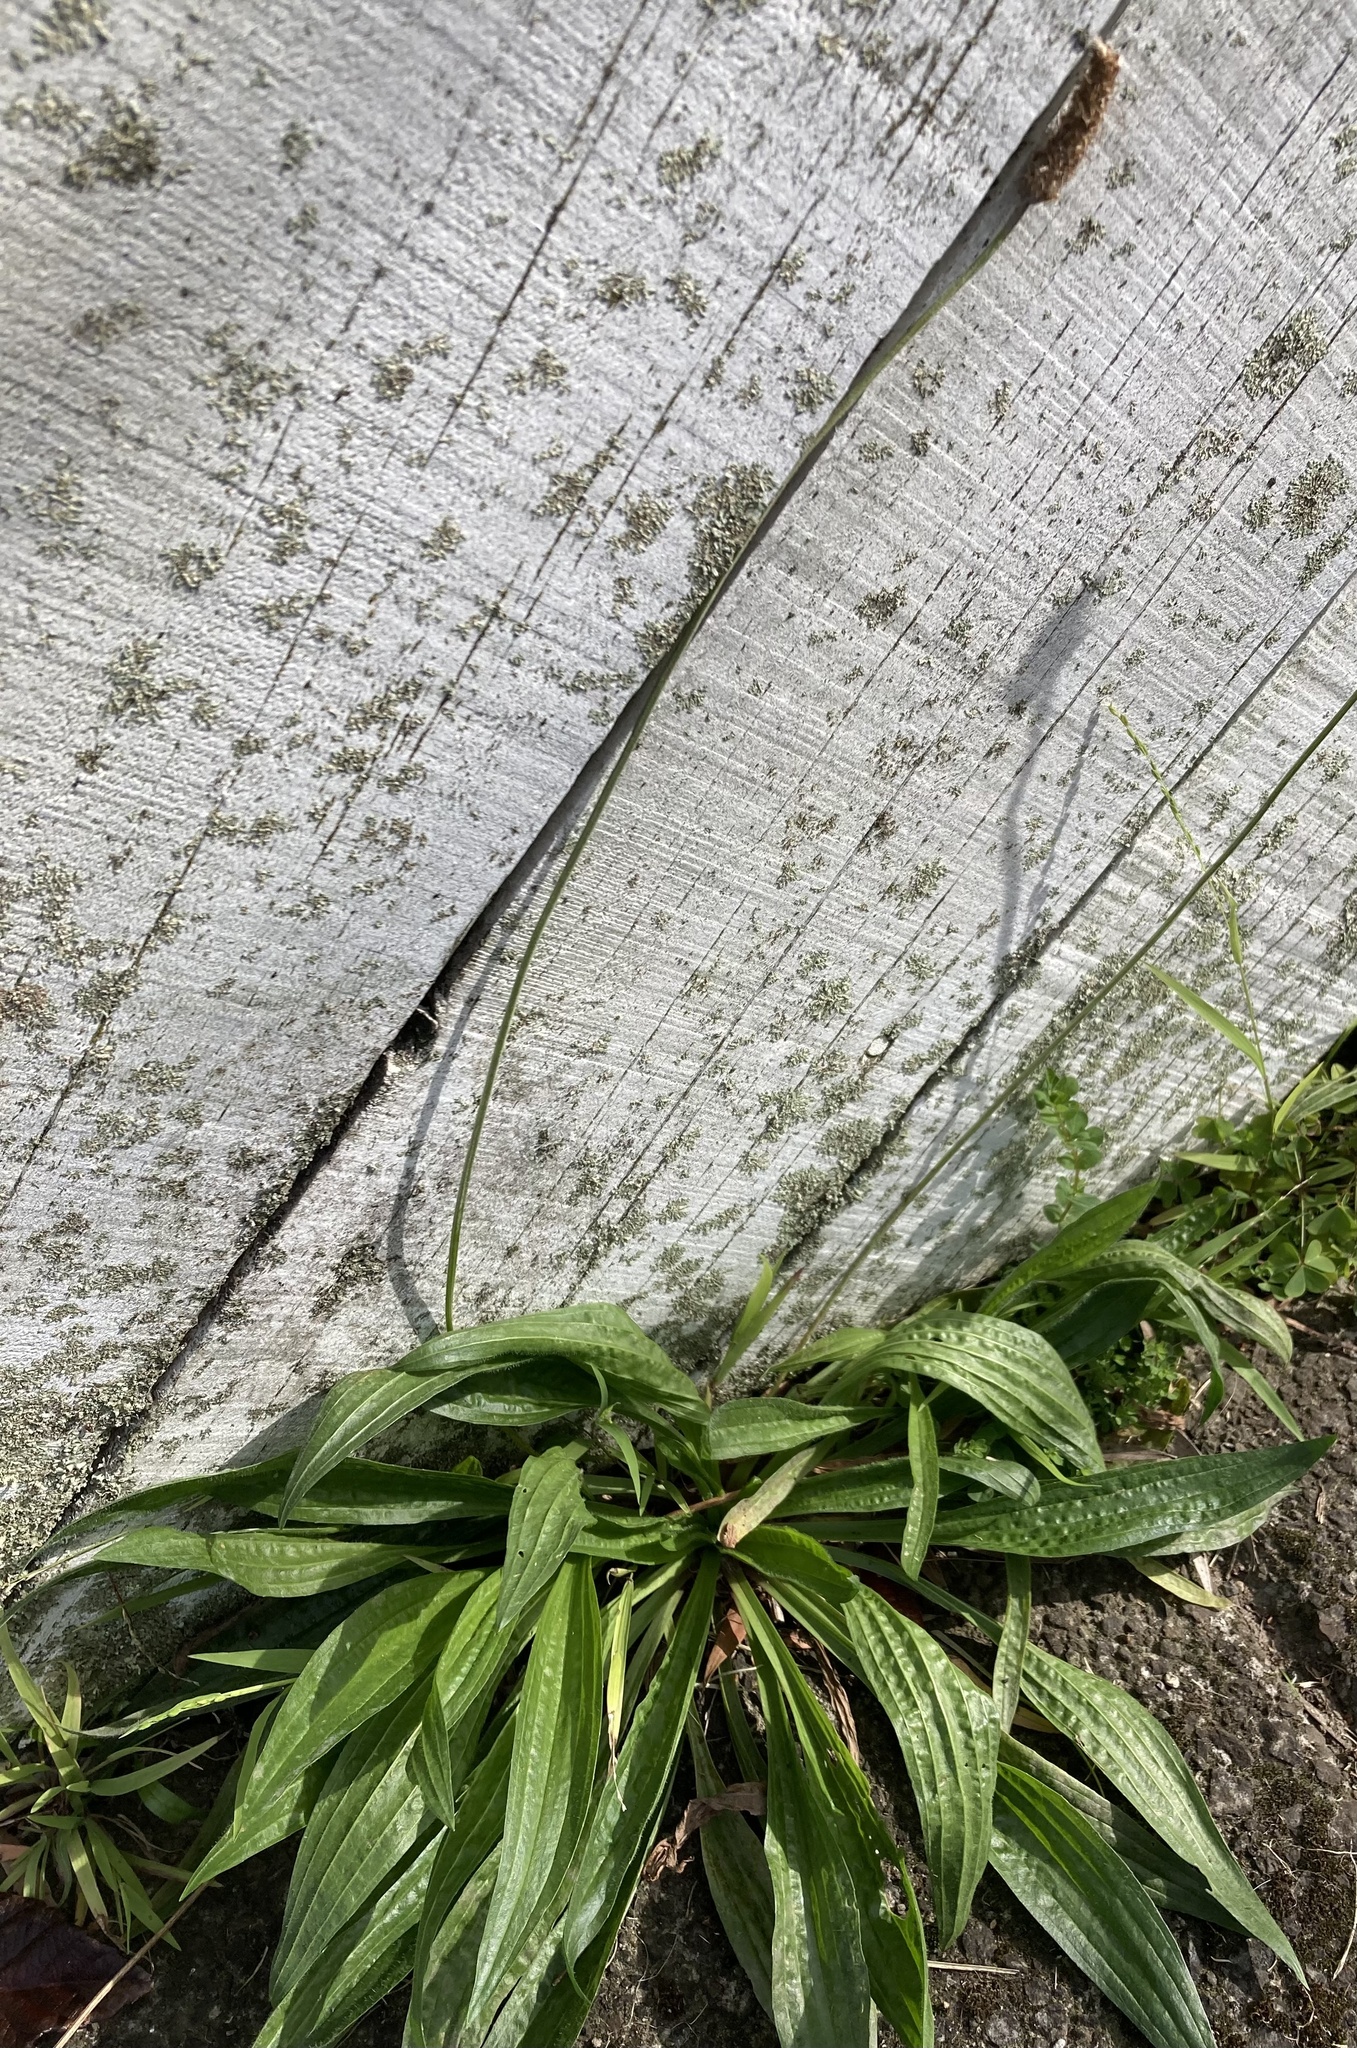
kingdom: Plantae
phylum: Tracheophyta
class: Magnoliopsida
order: Lamiales
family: Plantaginaceae
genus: Plantago
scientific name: Plantago lanceolata
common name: Ribwort plantain
